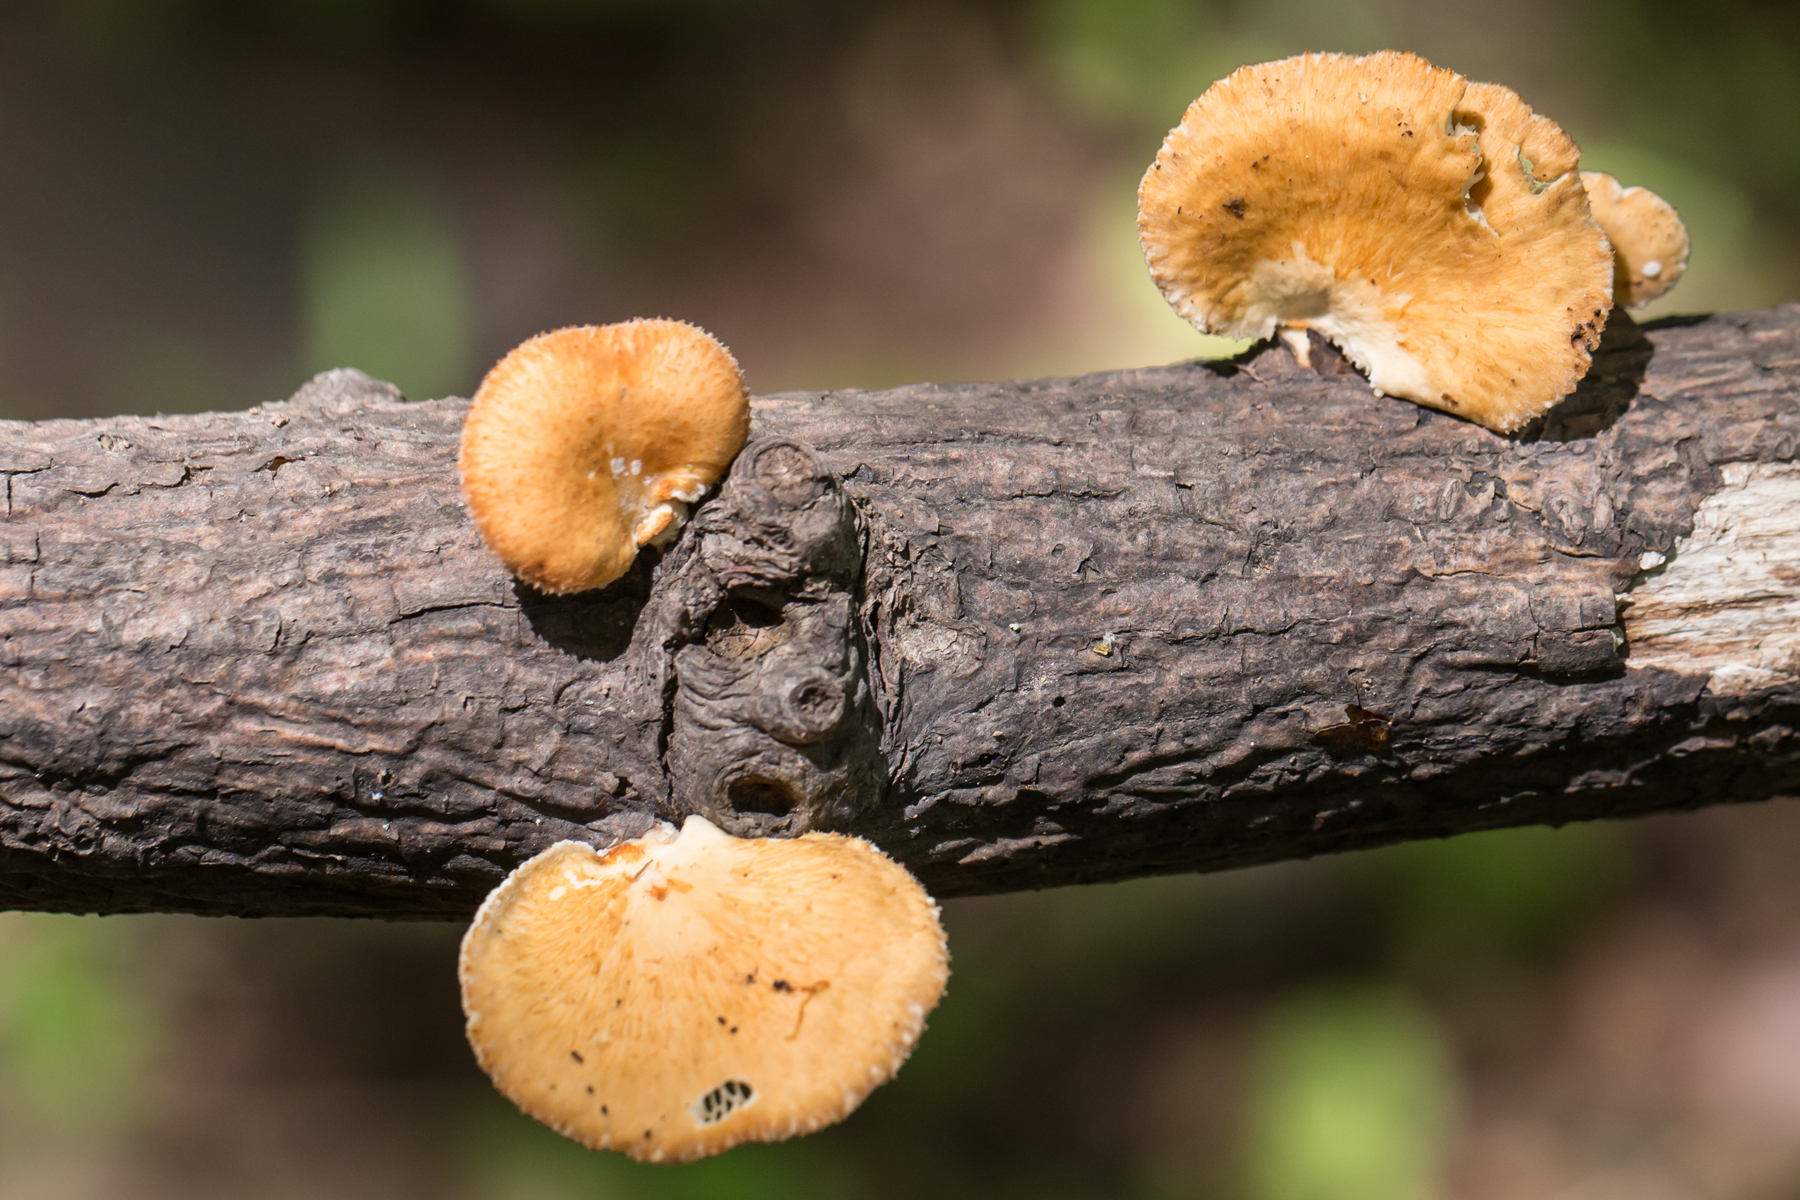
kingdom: Fungi
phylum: Basidiomycota
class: Agaricomycetes
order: Polyporales
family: Polyporaceae
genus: Neofavolus
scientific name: Neofavolus alveolaris
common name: Hexagonal-pored polypore
